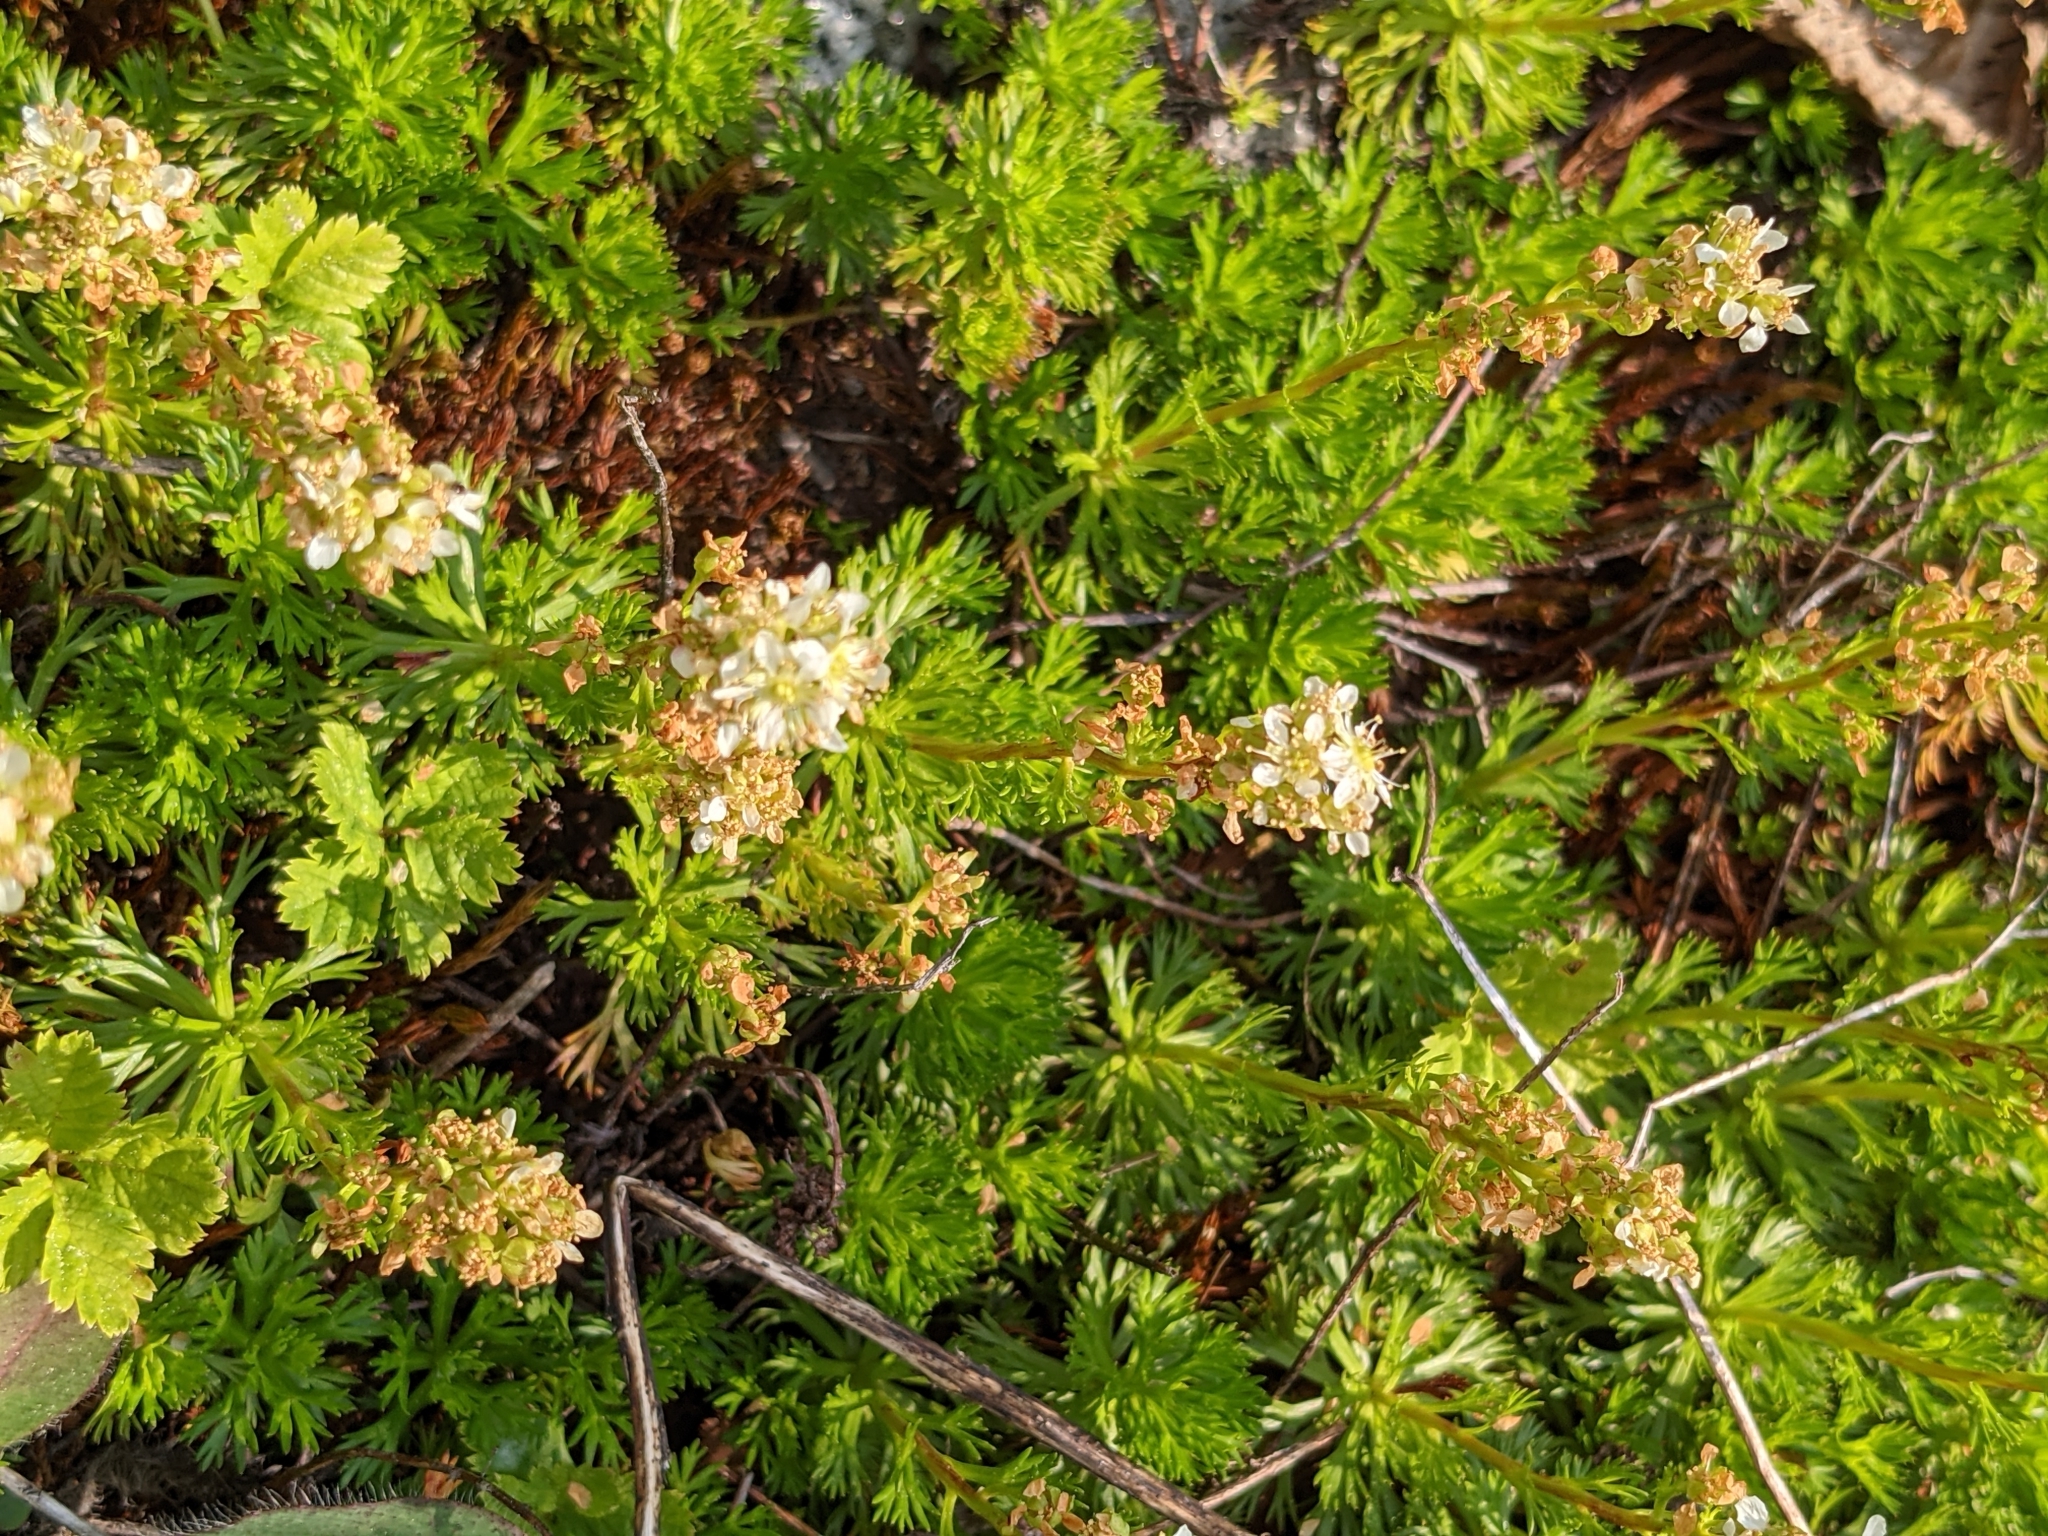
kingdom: Plantae
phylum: Tracheophyta
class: Magnoliopsida
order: Rosales
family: Rosaceae
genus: Luetkea
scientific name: Luetkea pectinata
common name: Partridgefoot
